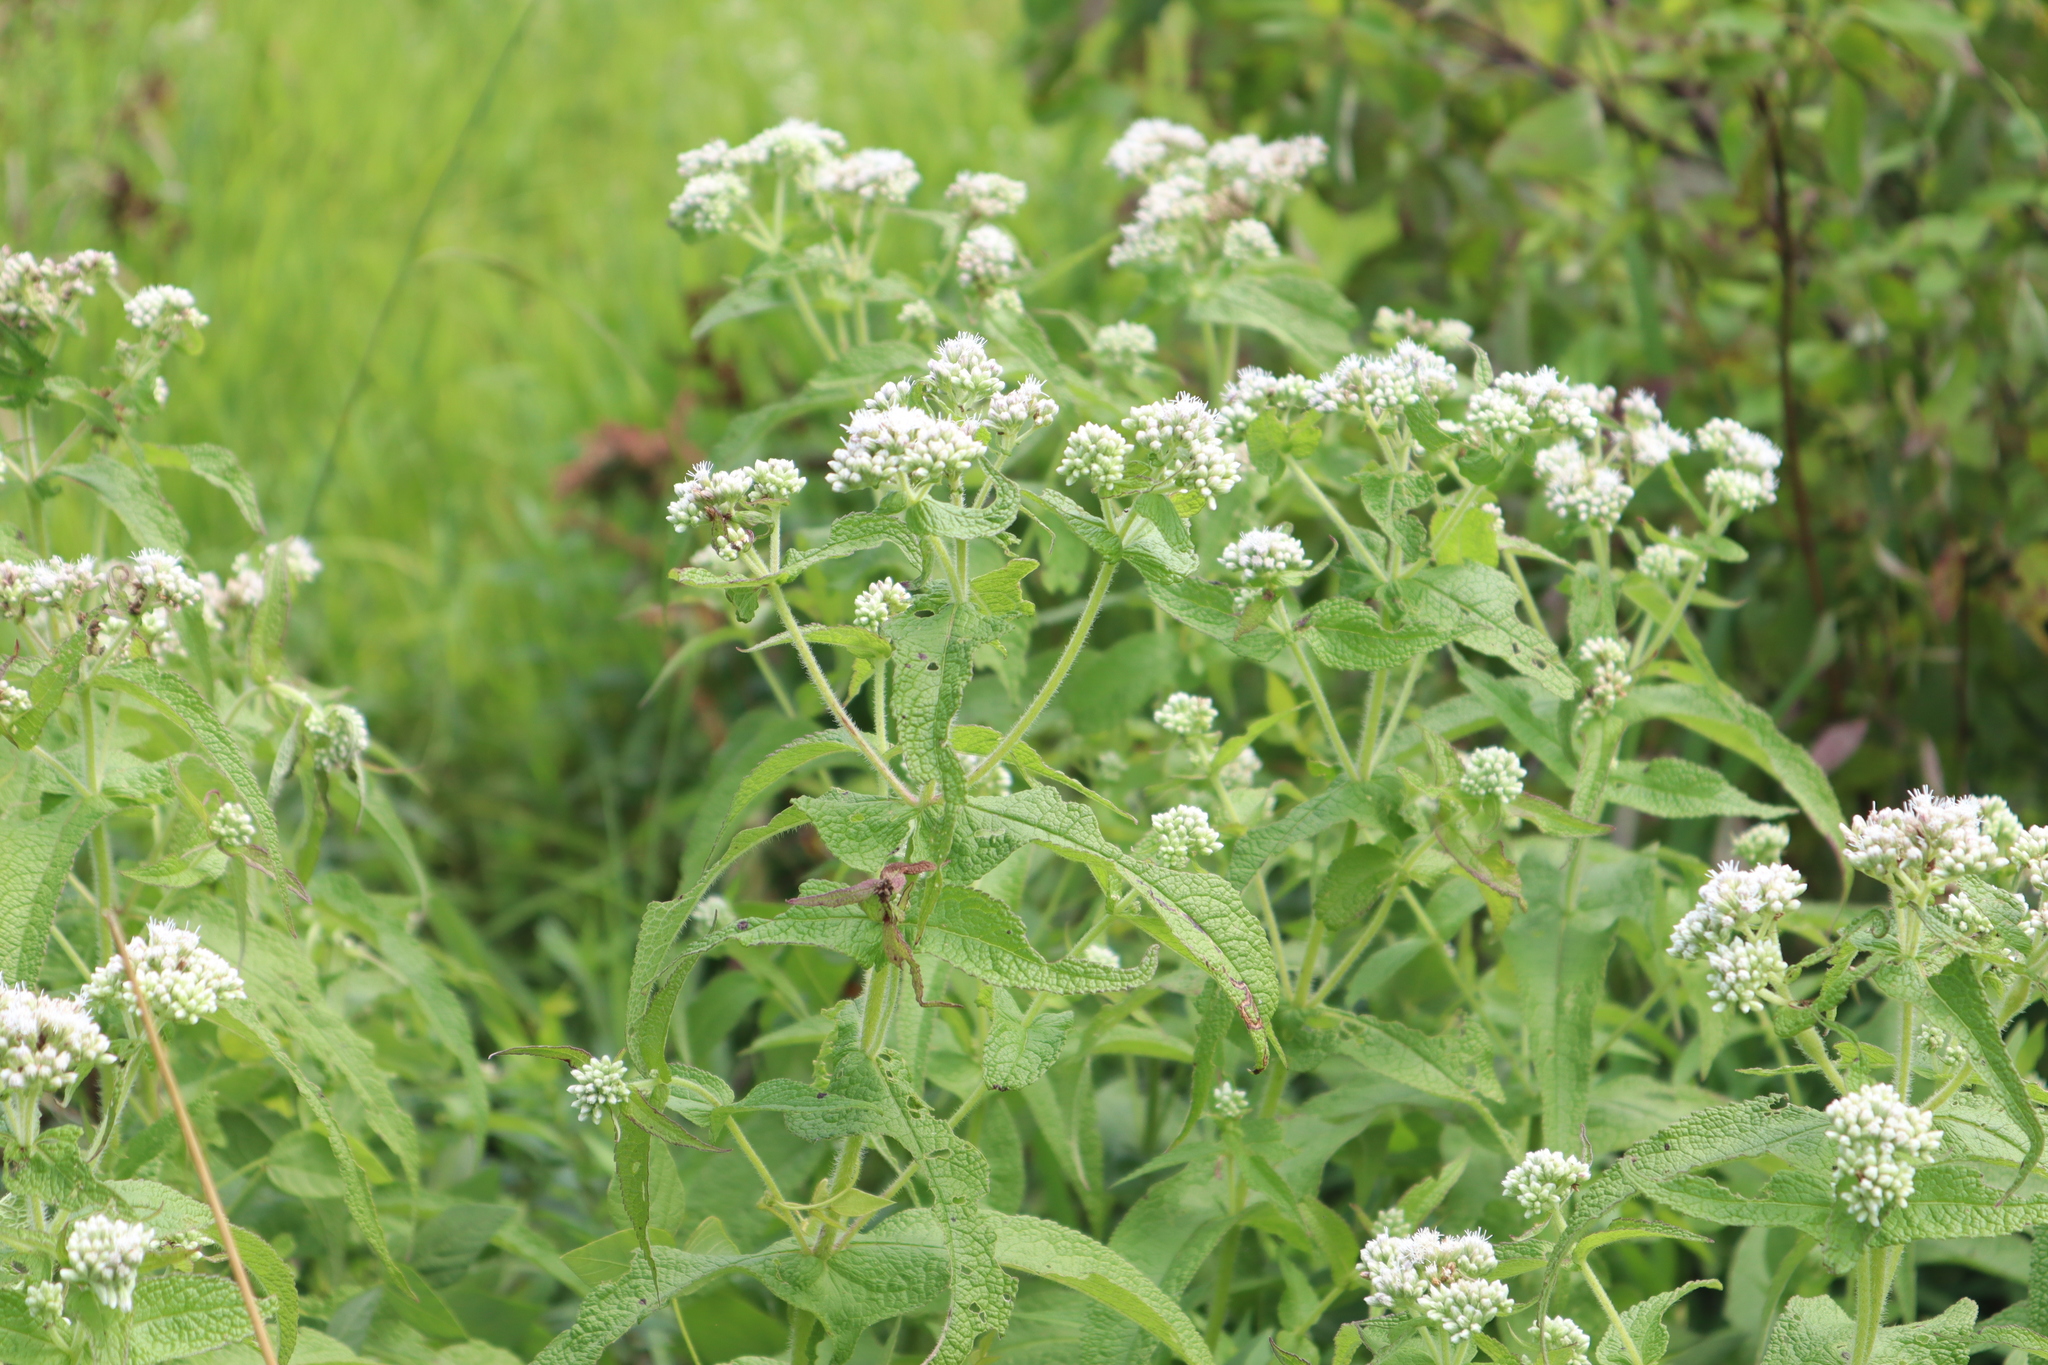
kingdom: Plantae
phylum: Tracheophyta
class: Magnoliopsida
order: Asterales
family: Asteraceae
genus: Eupatorium
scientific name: Eupatorium perfoliatum
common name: Boneset
